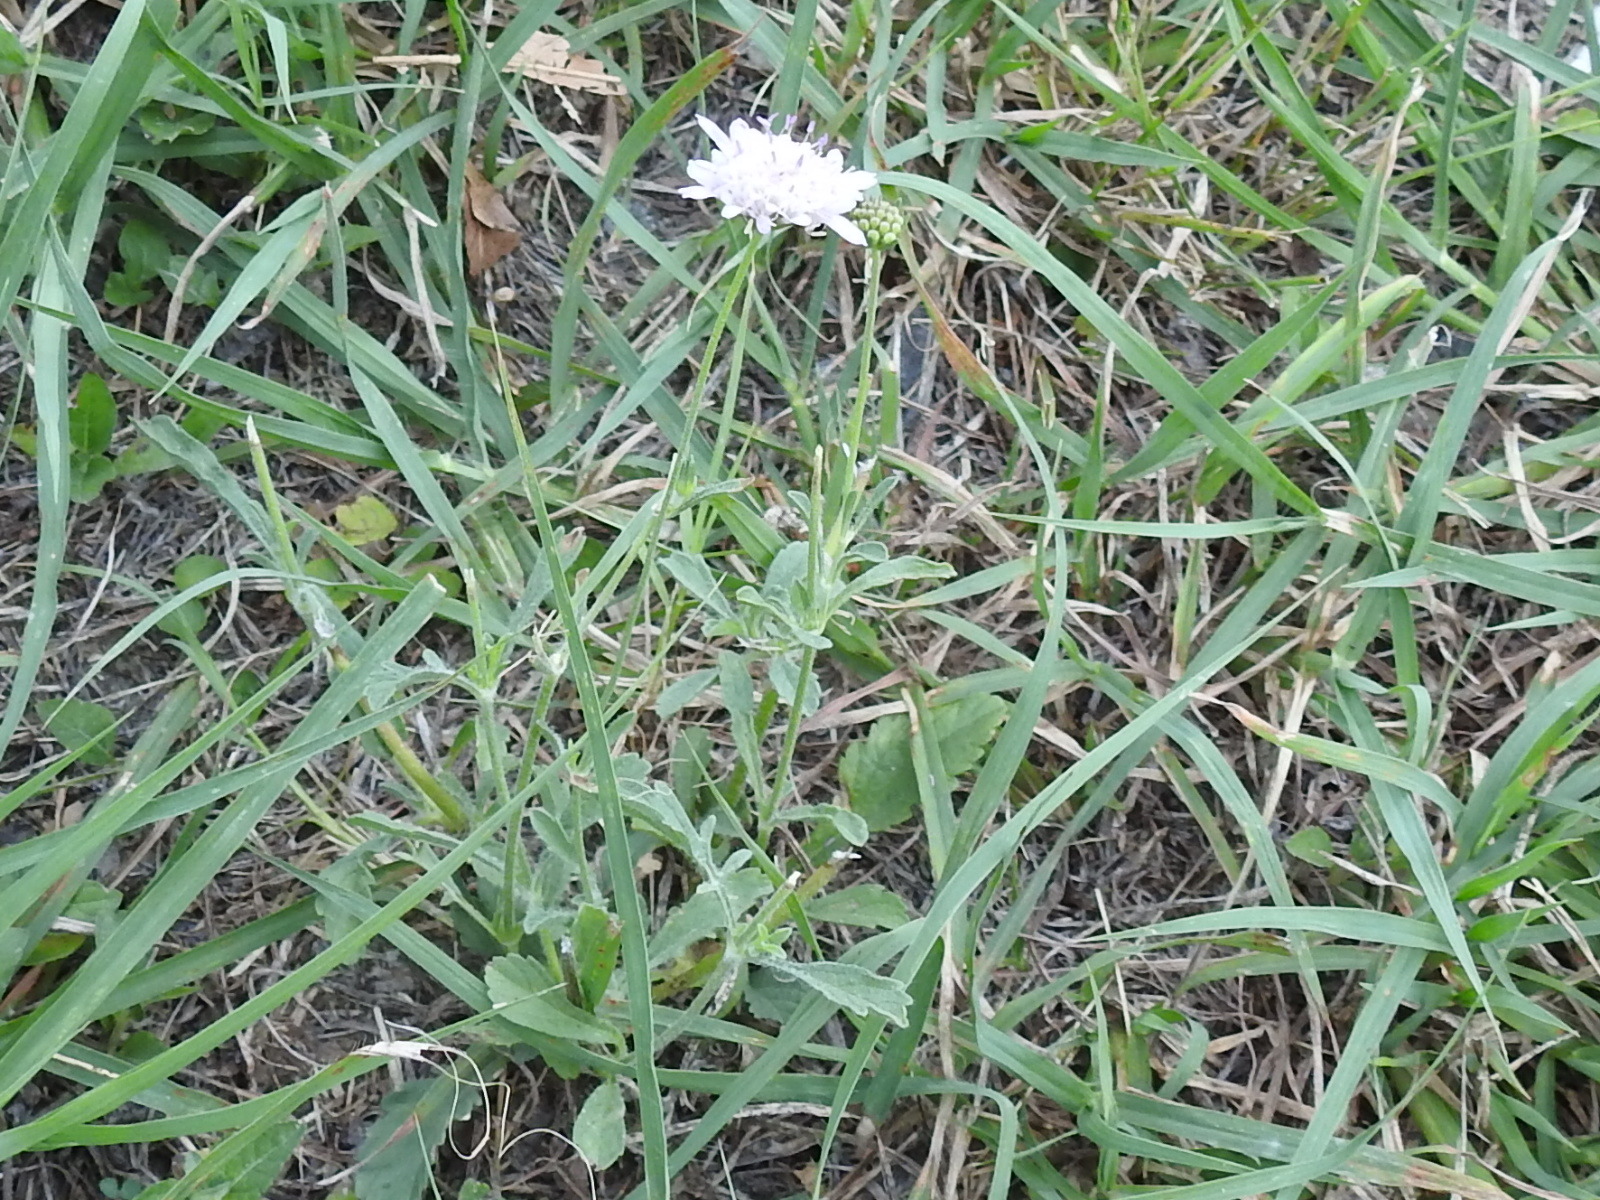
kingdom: Plantae
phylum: Tracheophyta
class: Magnoliopsida
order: Dipsacales
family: Caprifoliaceae
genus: Sixalix
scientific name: Sixalix atropurpurea
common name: Sweet scabious
